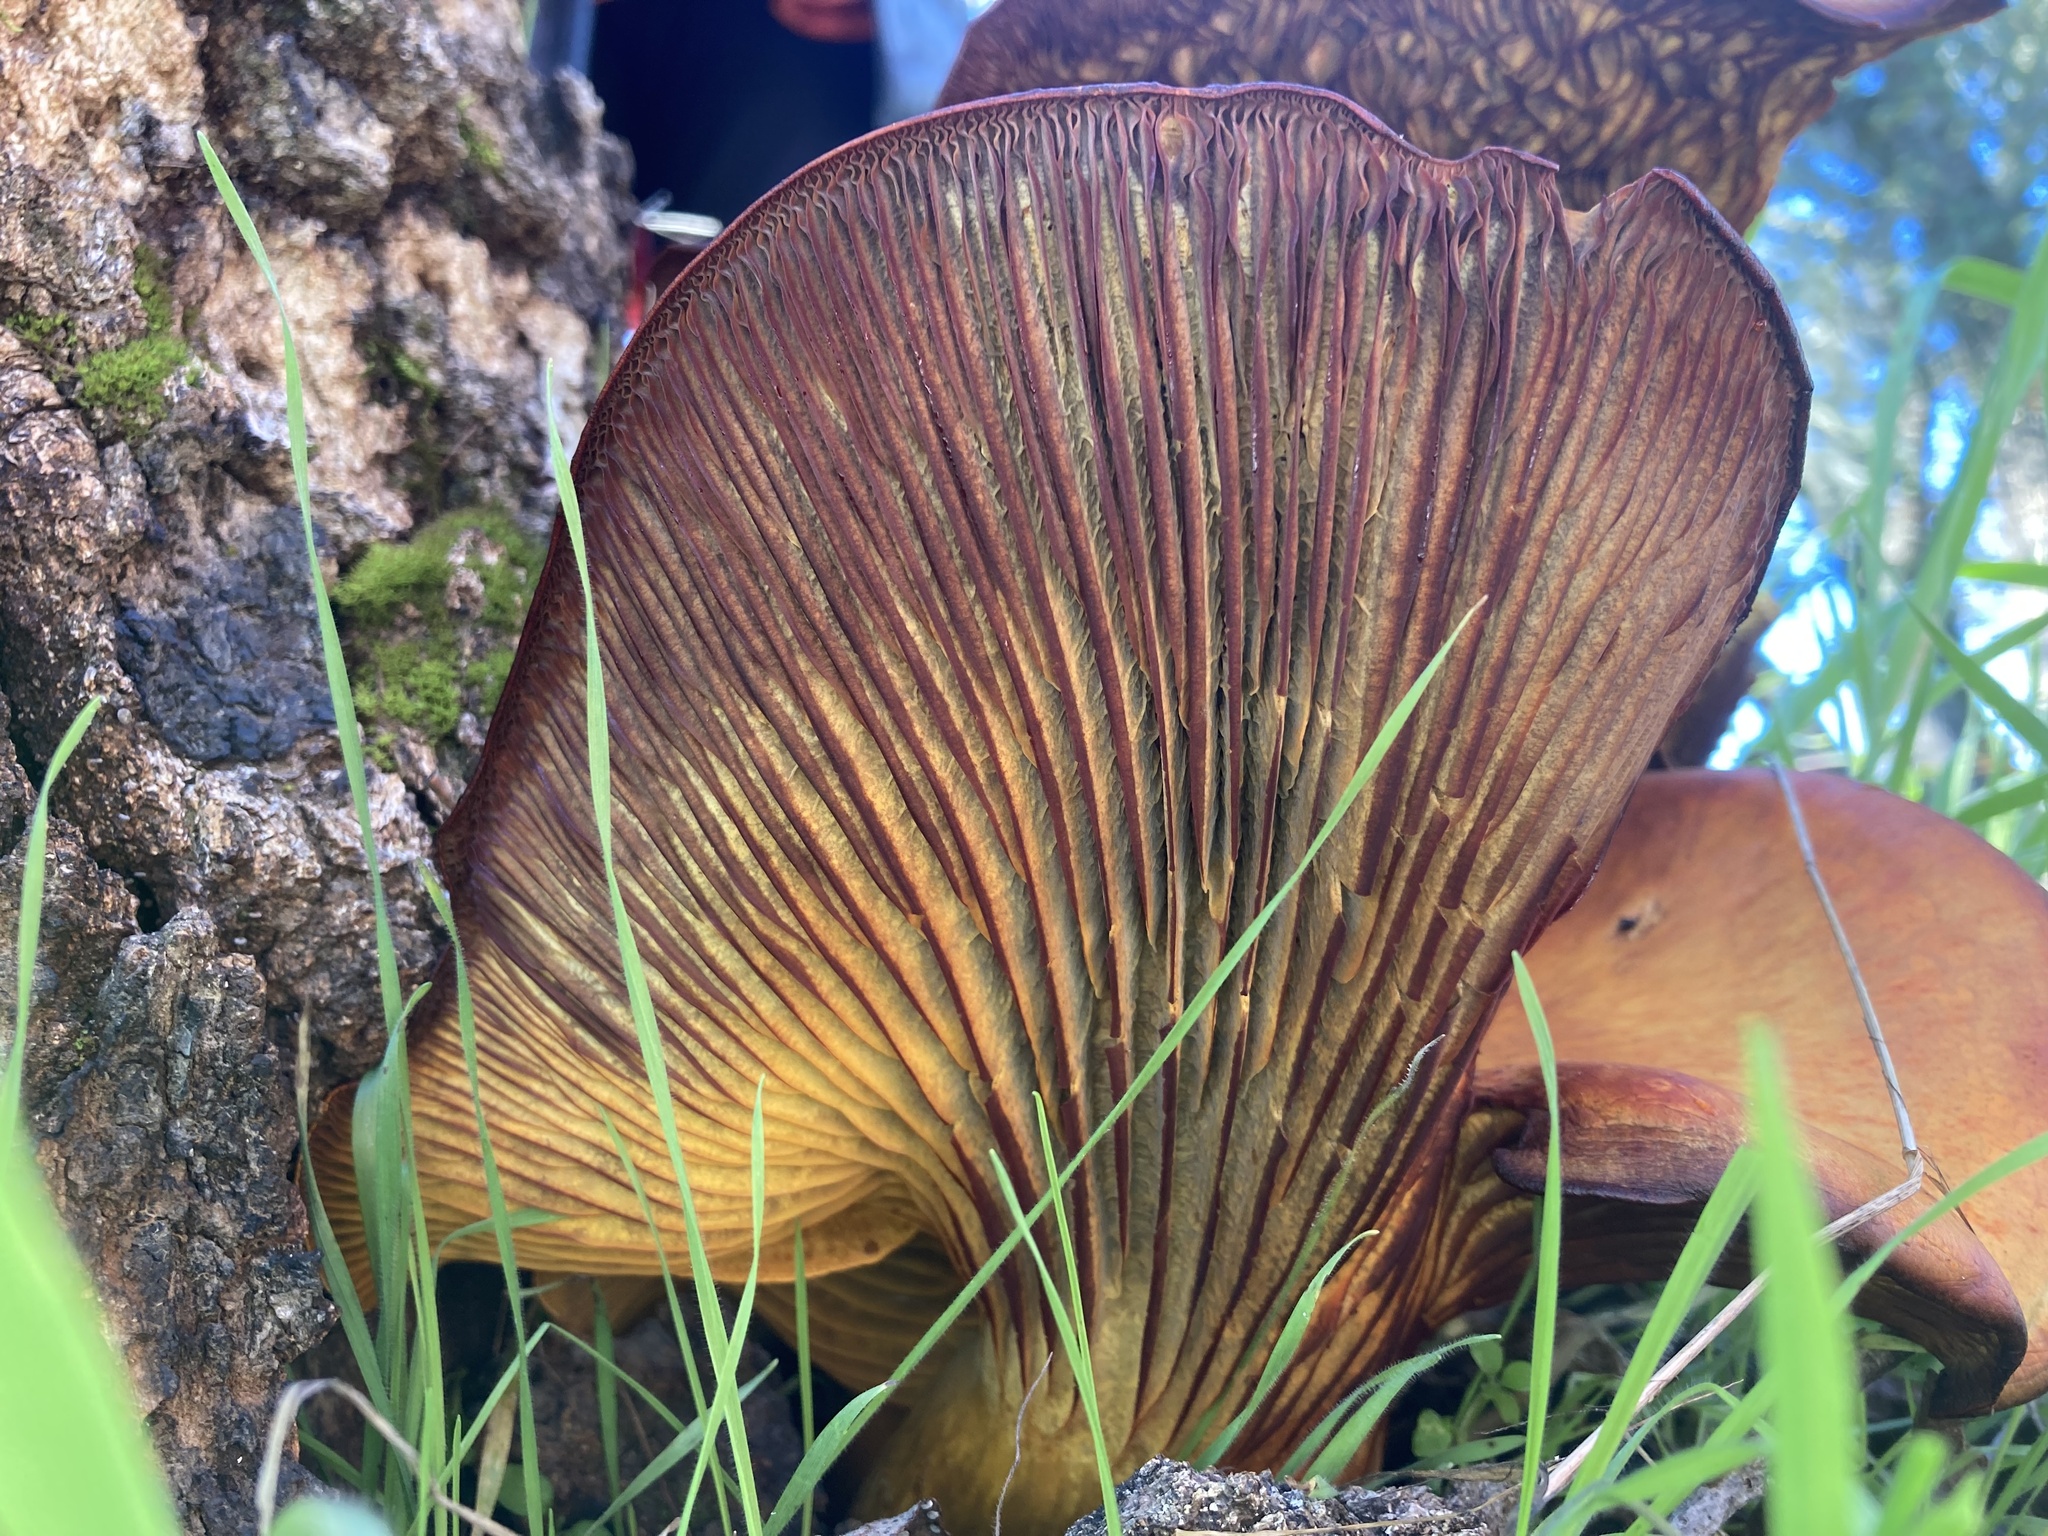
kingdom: Fungi
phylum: Basidiomycota
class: Agaricomycetes
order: Agaricales
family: Omphalotaceae
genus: Omphalotus
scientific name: Omphalotus olivascens
